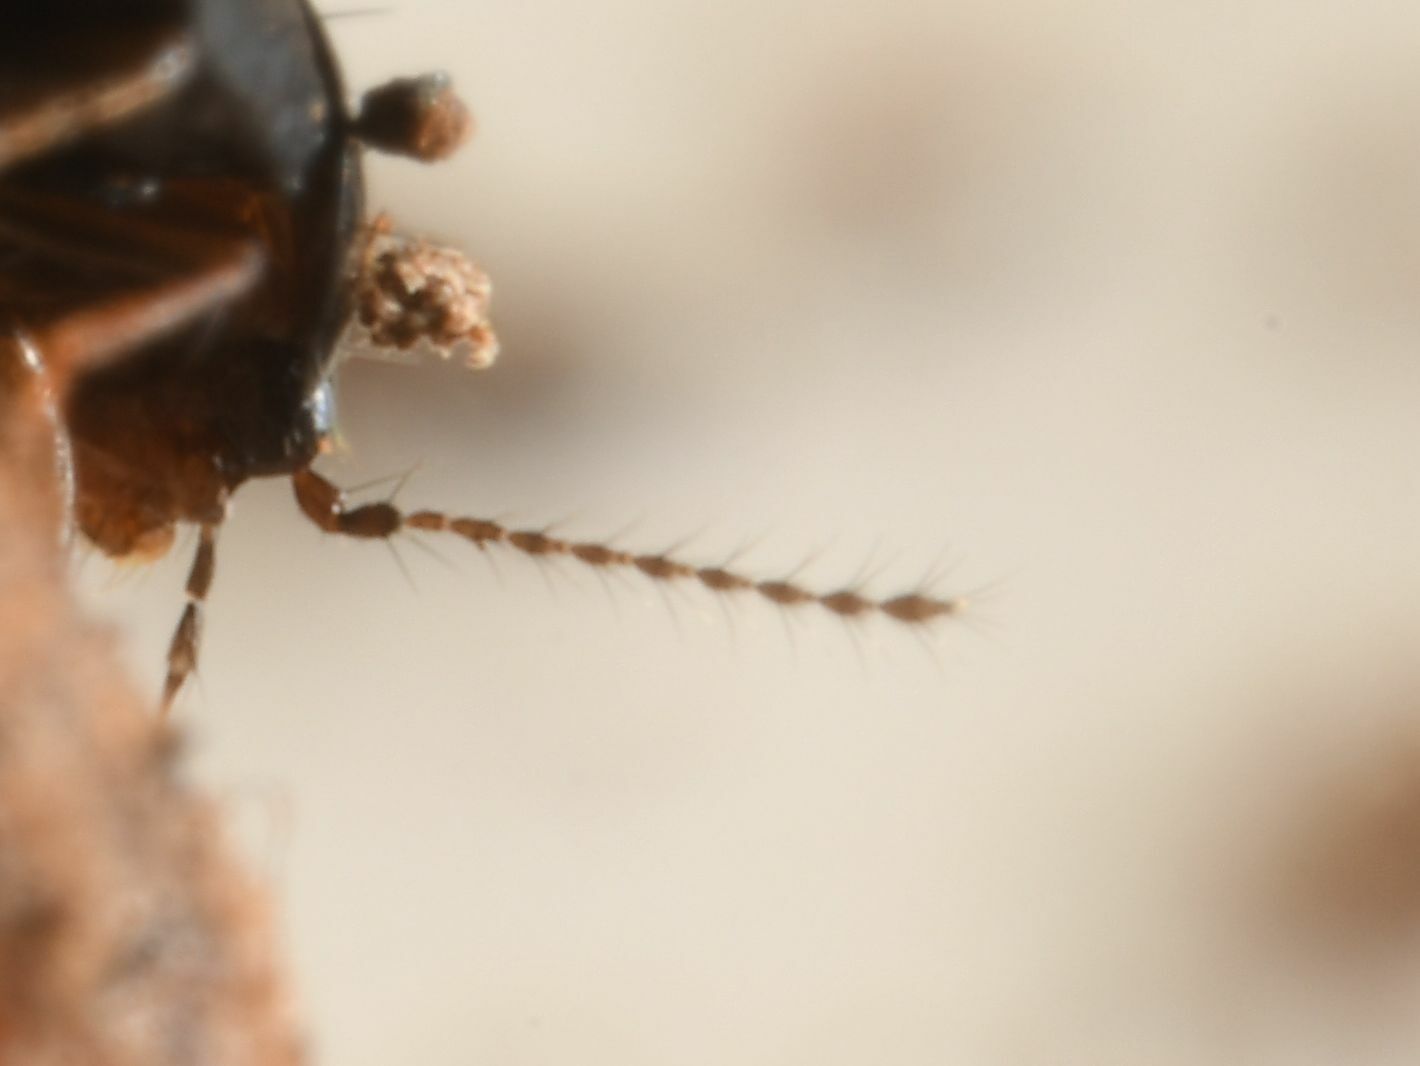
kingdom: Animalia
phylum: Arthropoda
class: Insecta
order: Coleoptera
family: Staphylinidae
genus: Habrocerus
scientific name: Habrocerus capillaricornis
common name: Staph beetle
